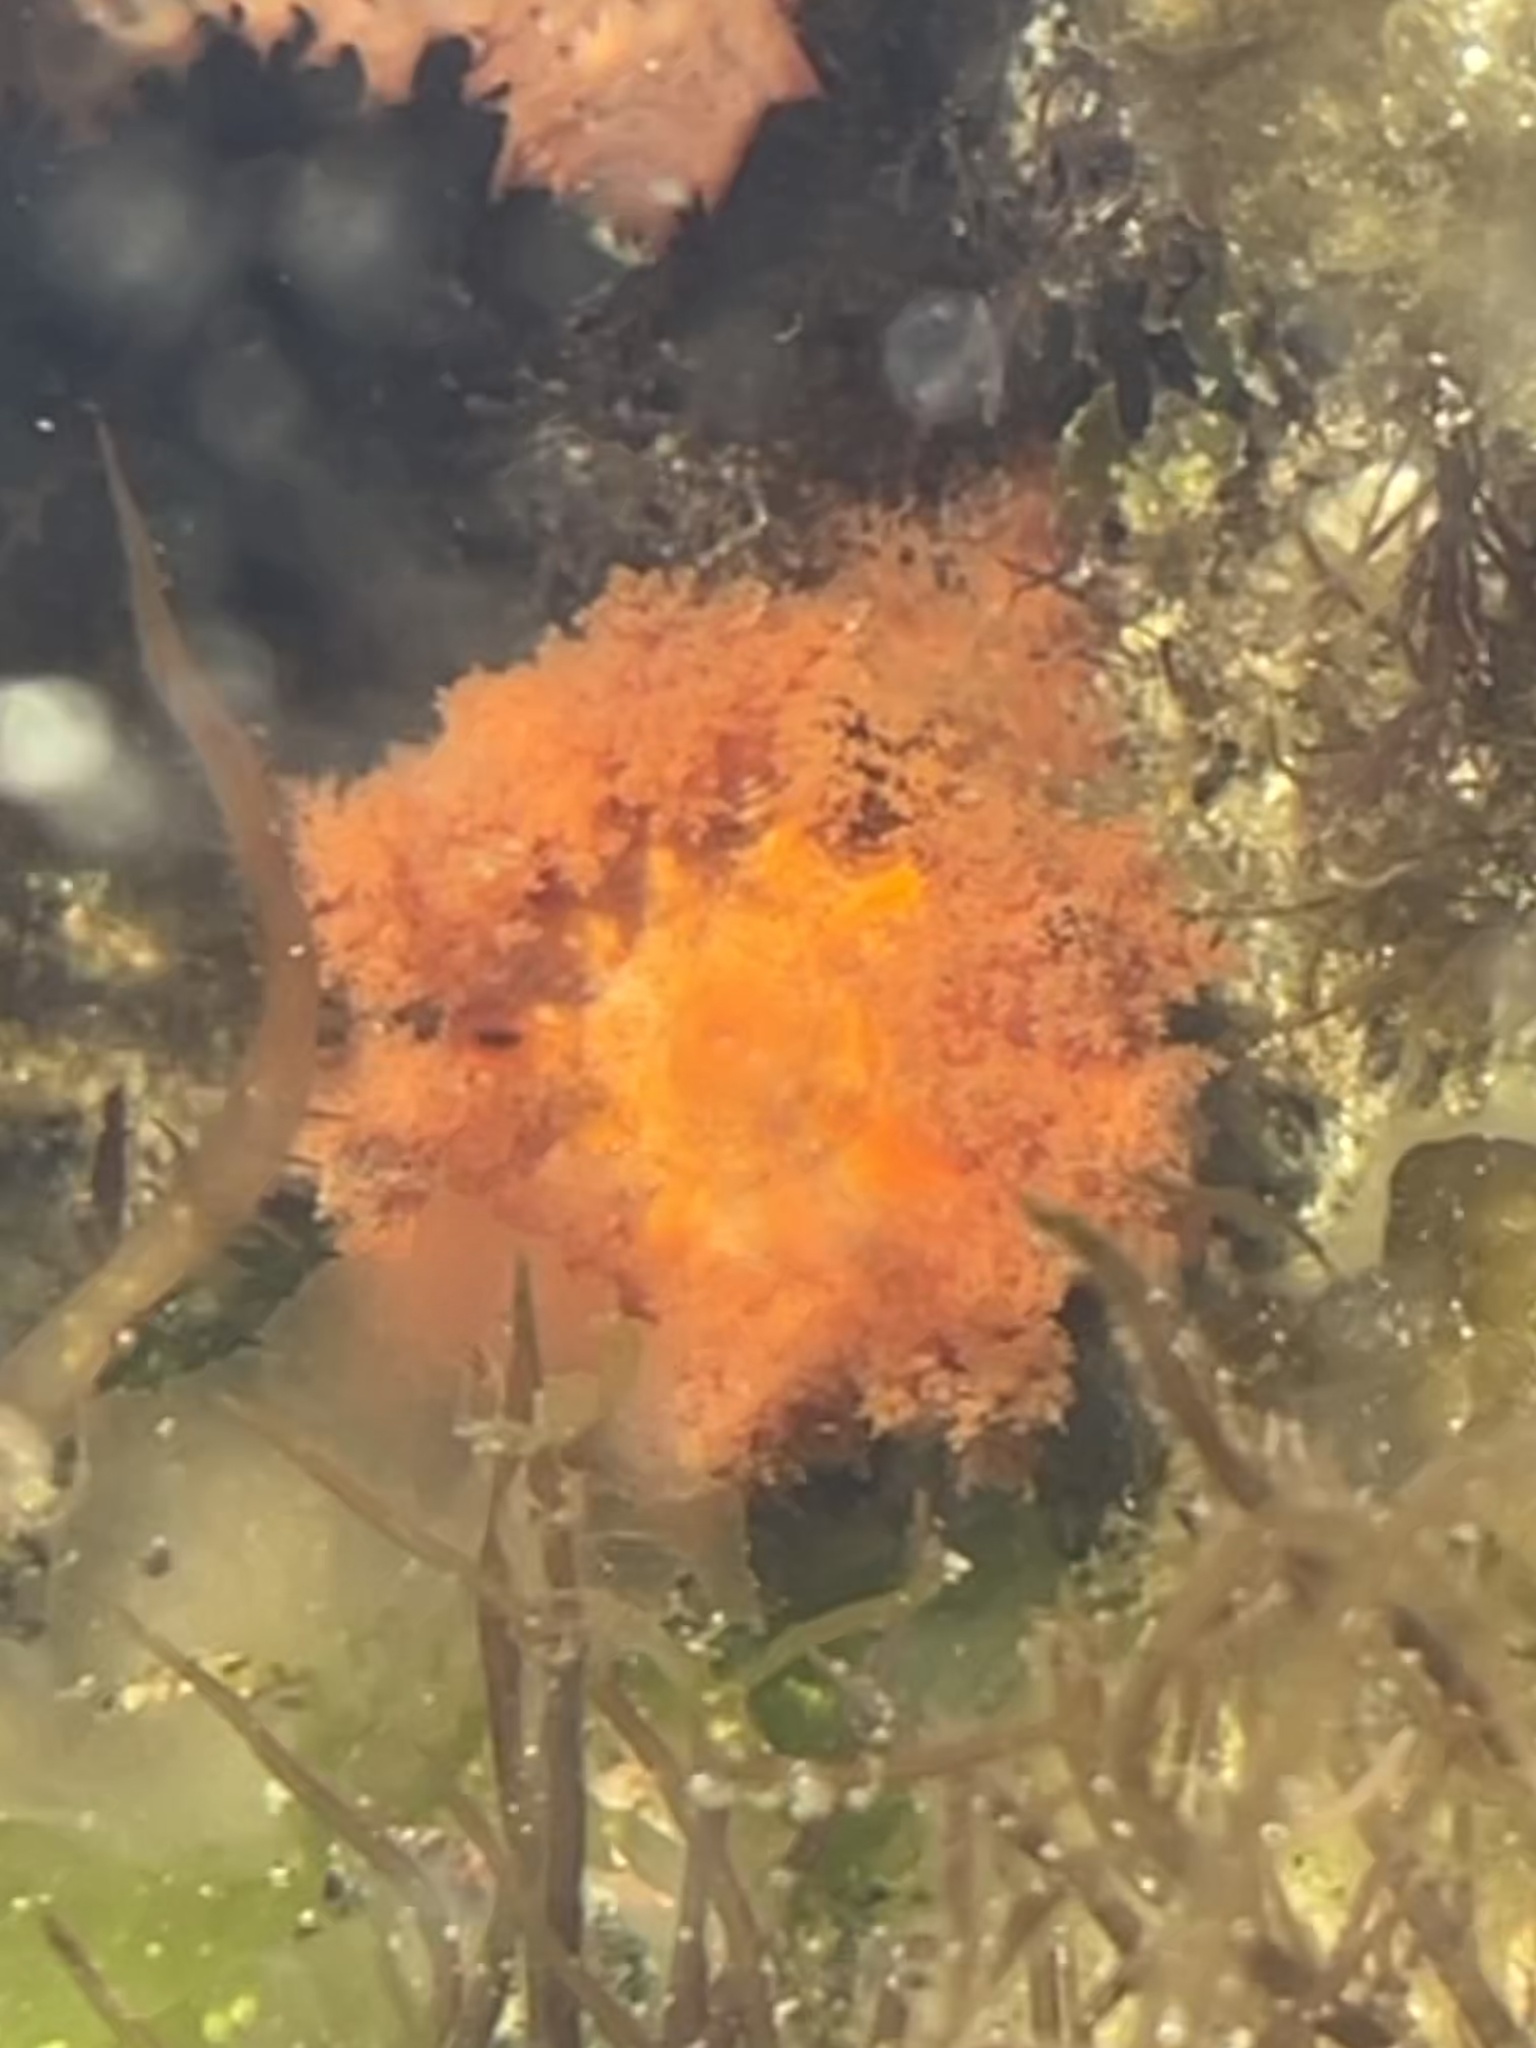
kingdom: Animalia
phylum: Echinodermata
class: Holothuroidea
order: Dendrochirotida
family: Cucumariidae
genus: Cucumaria
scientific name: Cucumaria miniata
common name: Orange sea cucumber
